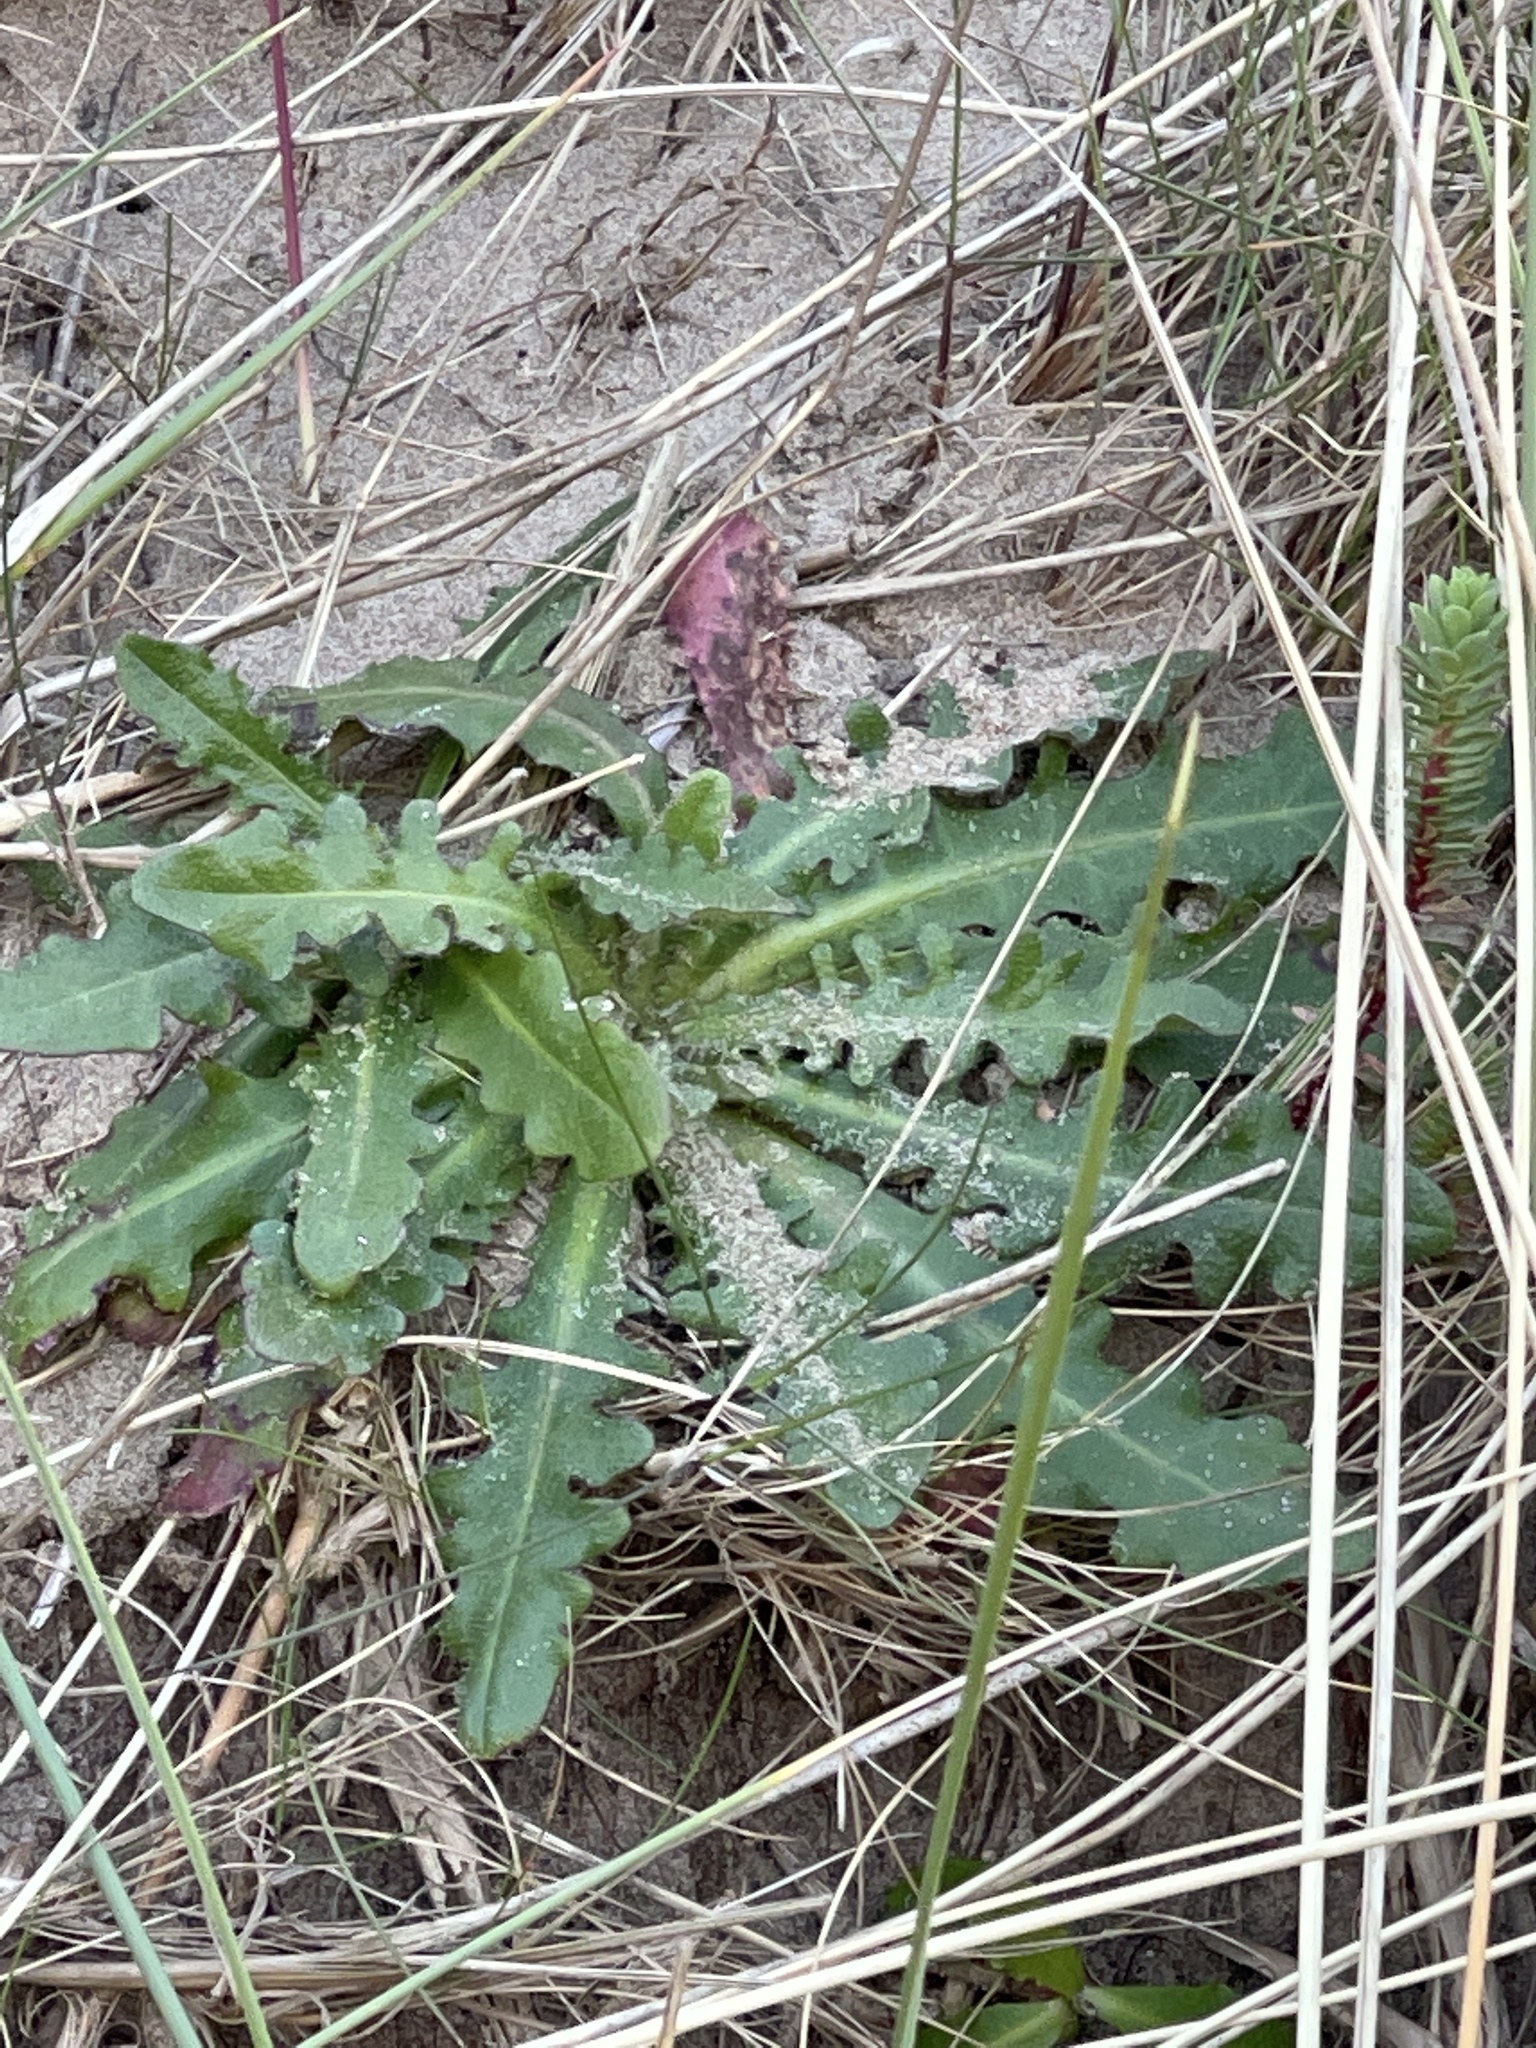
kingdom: Plantae
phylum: Tracheophyta
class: Magnoliopsida
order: Asterales
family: Asteraceae
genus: Hypochaeris
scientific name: Hypochaeris radicata
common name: Flatweed
